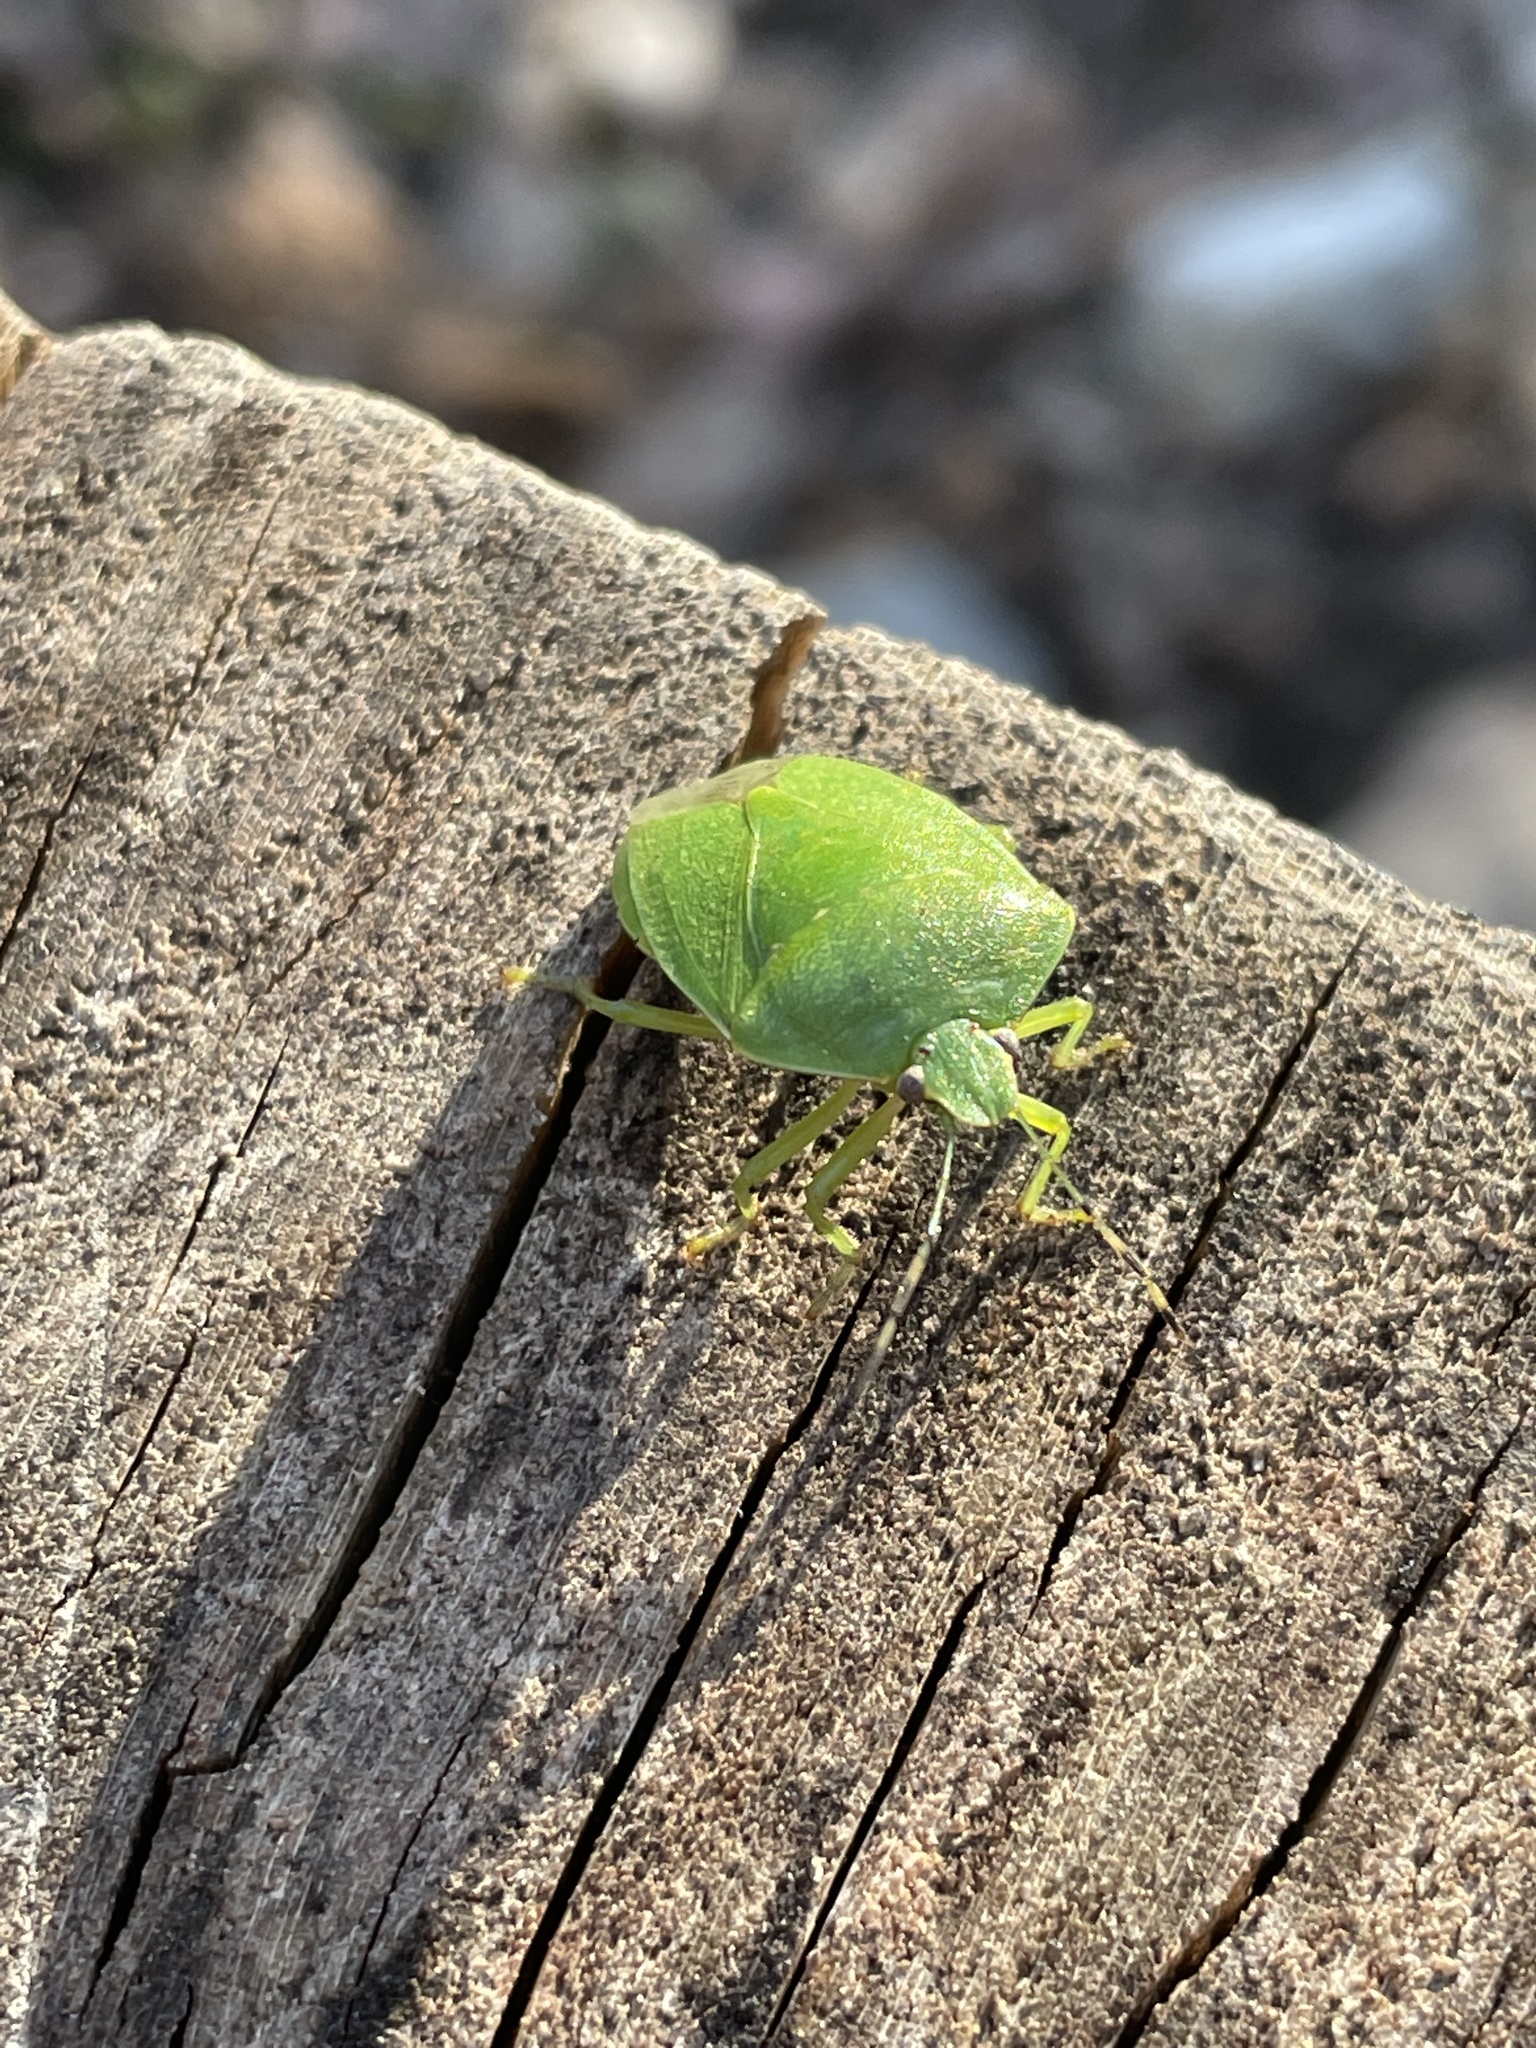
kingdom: Animalia
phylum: Arthropoda
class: Insecta
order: Hemiptera
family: Pentatomidae
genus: Chinavia
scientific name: Chinavia hilaris
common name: Green stink bug
